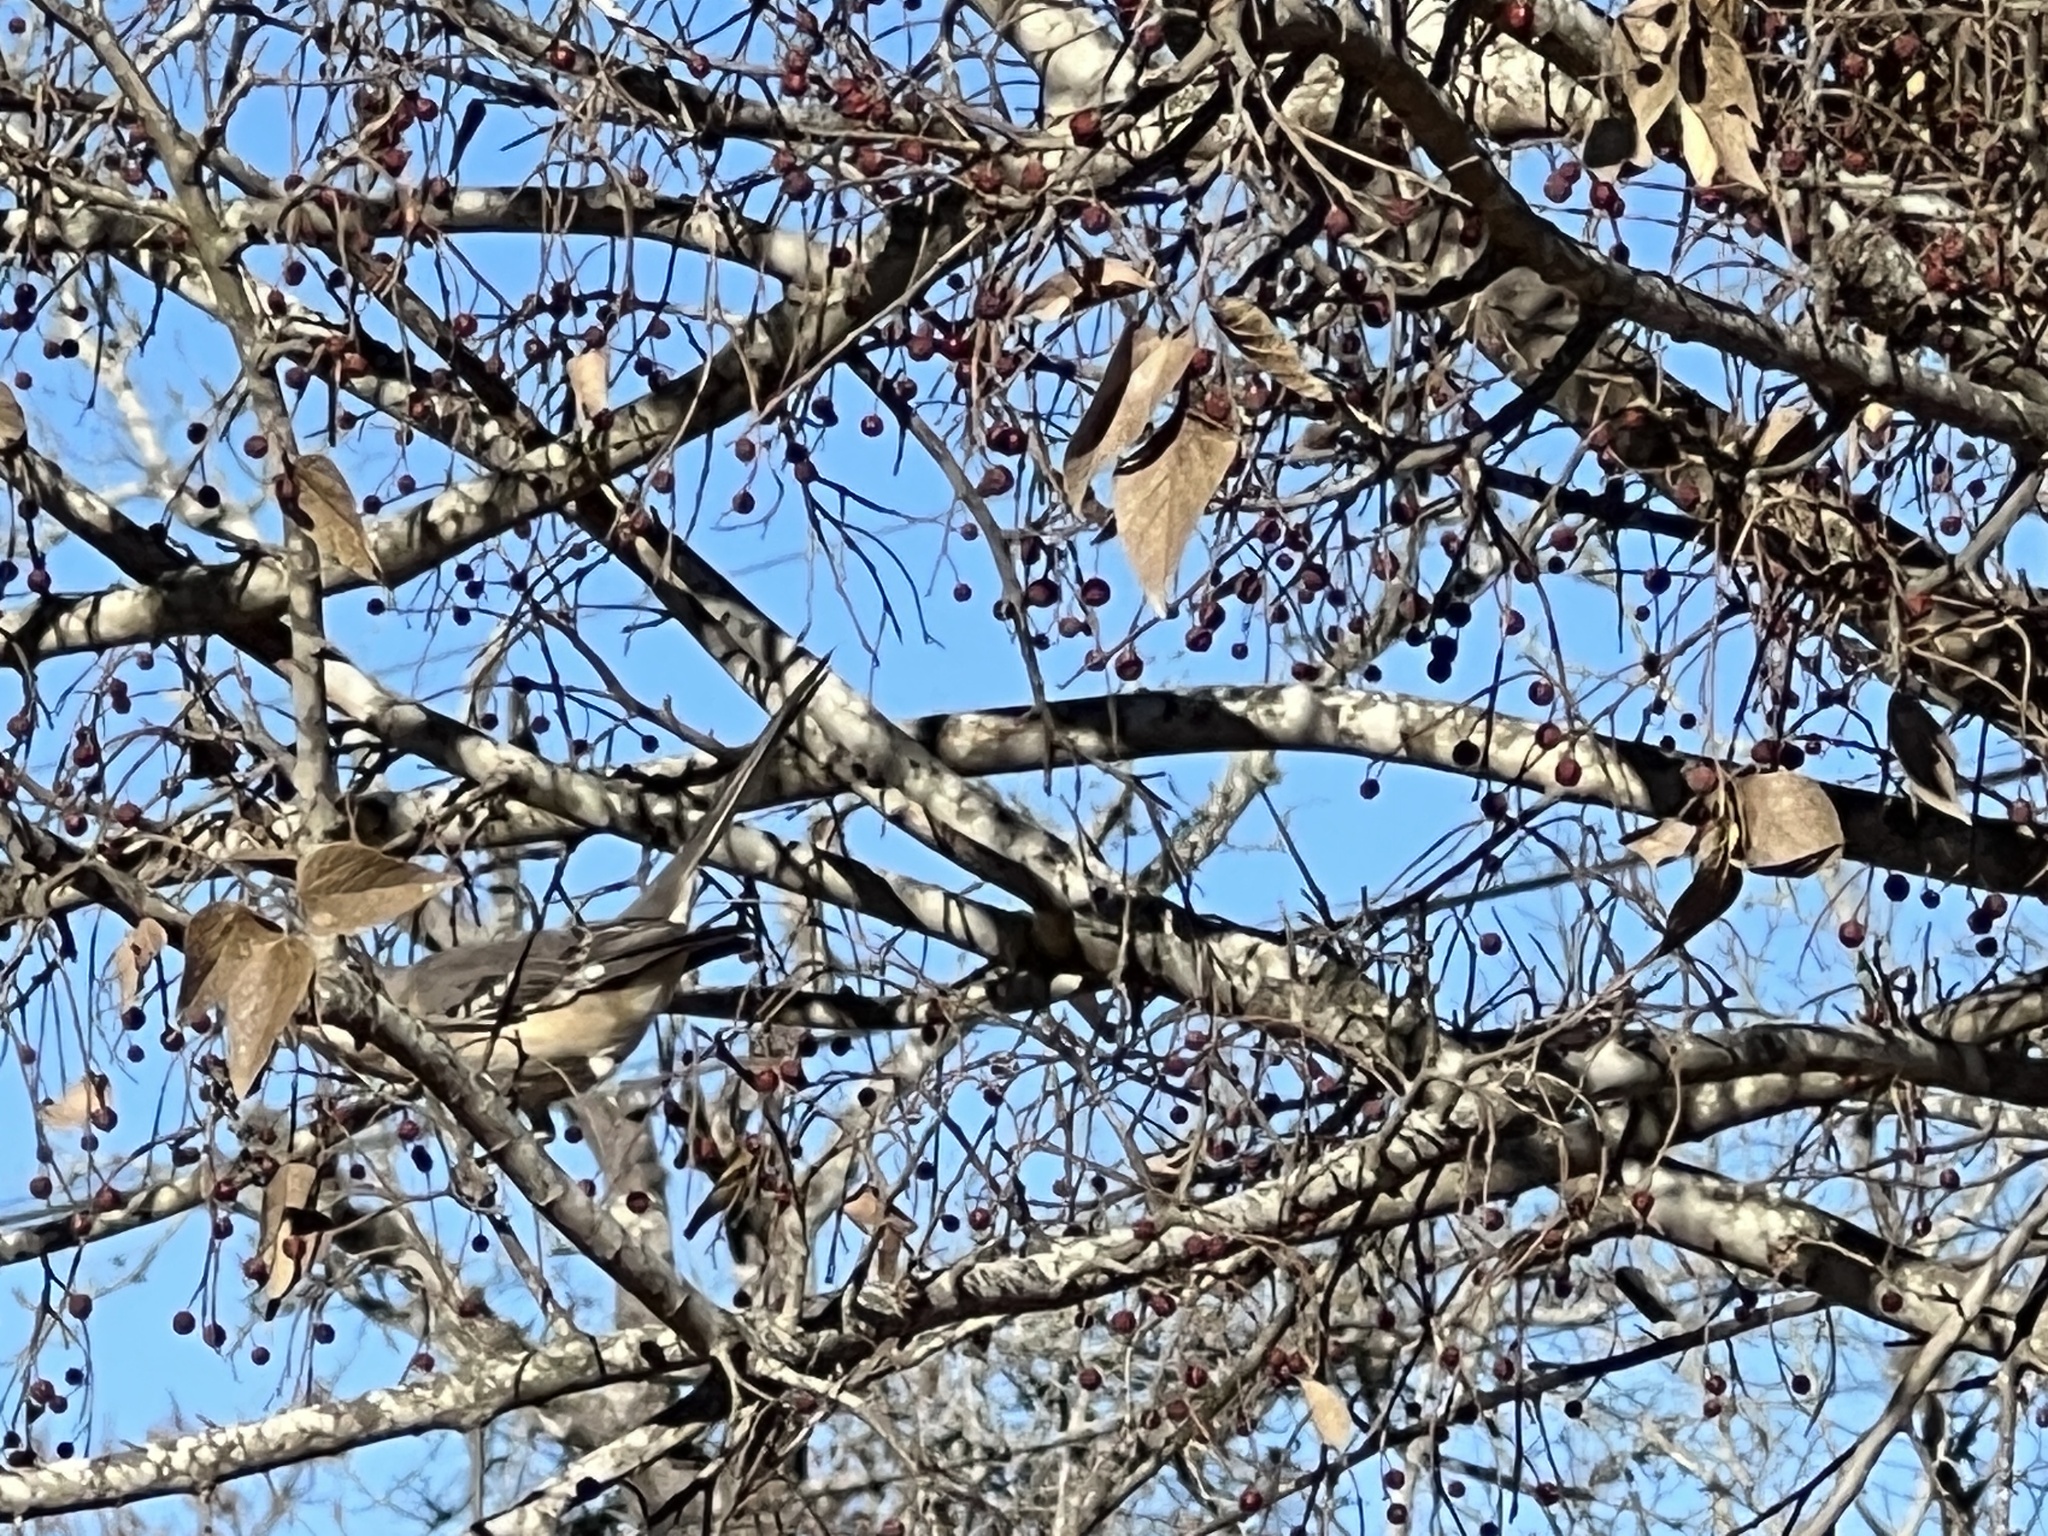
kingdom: Animalia
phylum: Chordata
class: Aves
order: Passeriformes
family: Mimidae
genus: Mimus
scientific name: Mimus polyglottos
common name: Northern mockingbird
